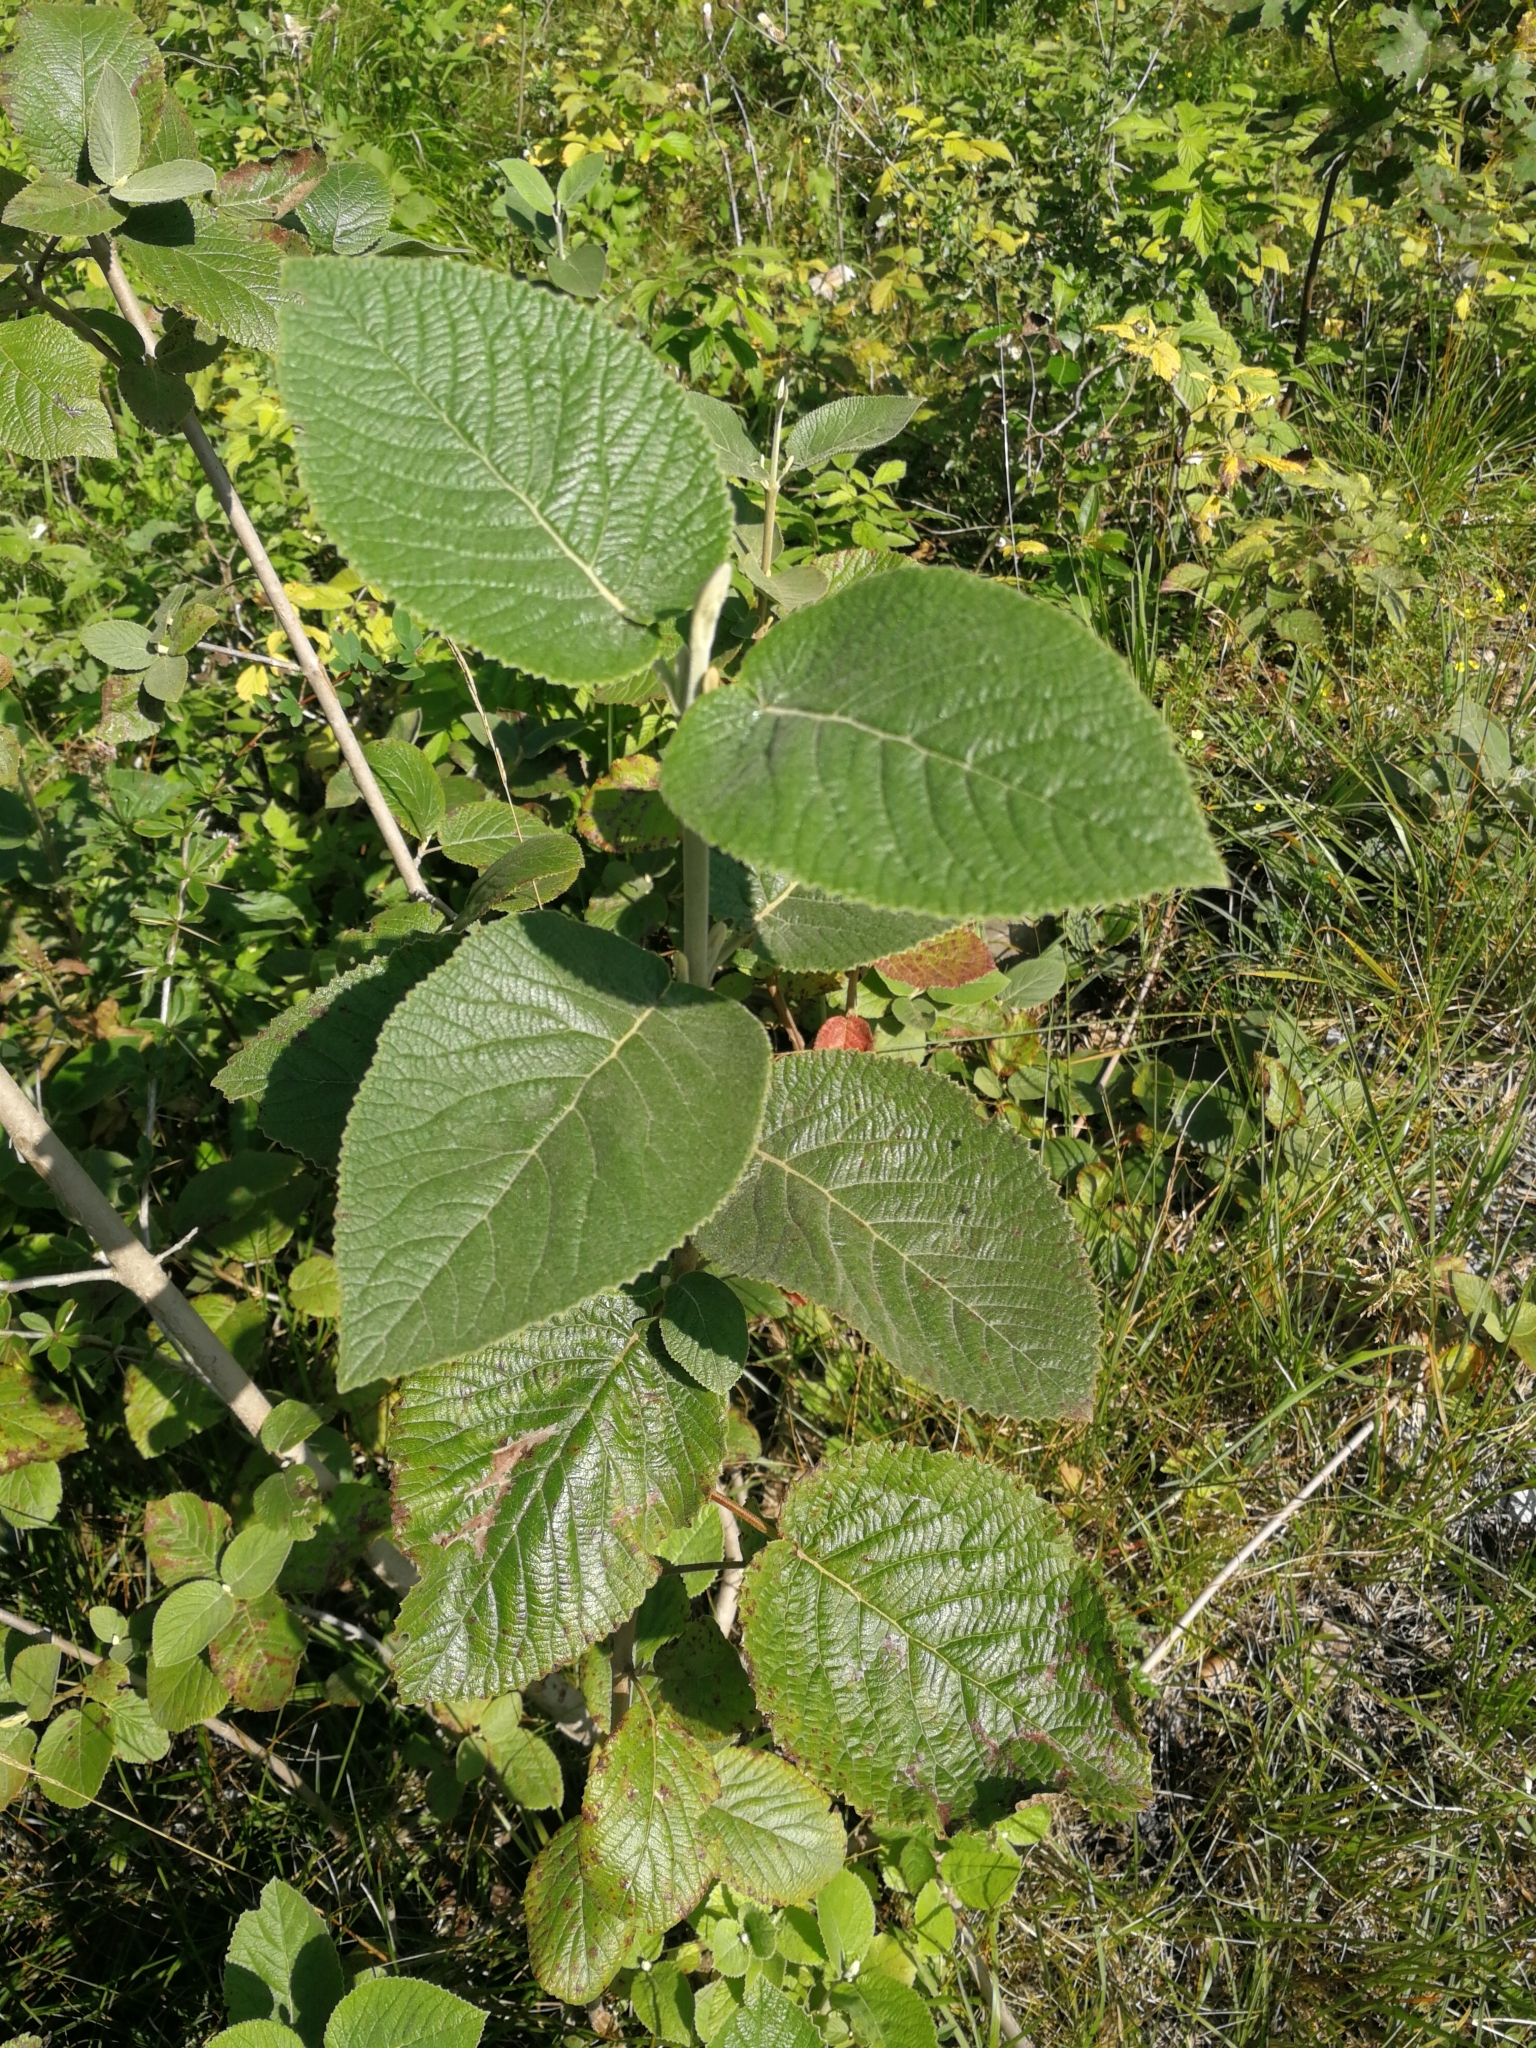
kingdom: Plantae
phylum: Tracheophyta
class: Magnoliopsida
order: Dipsacales
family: Viburnaceae
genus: Viburnum
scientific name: Viburnum lantana
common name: Wayfaring tree
